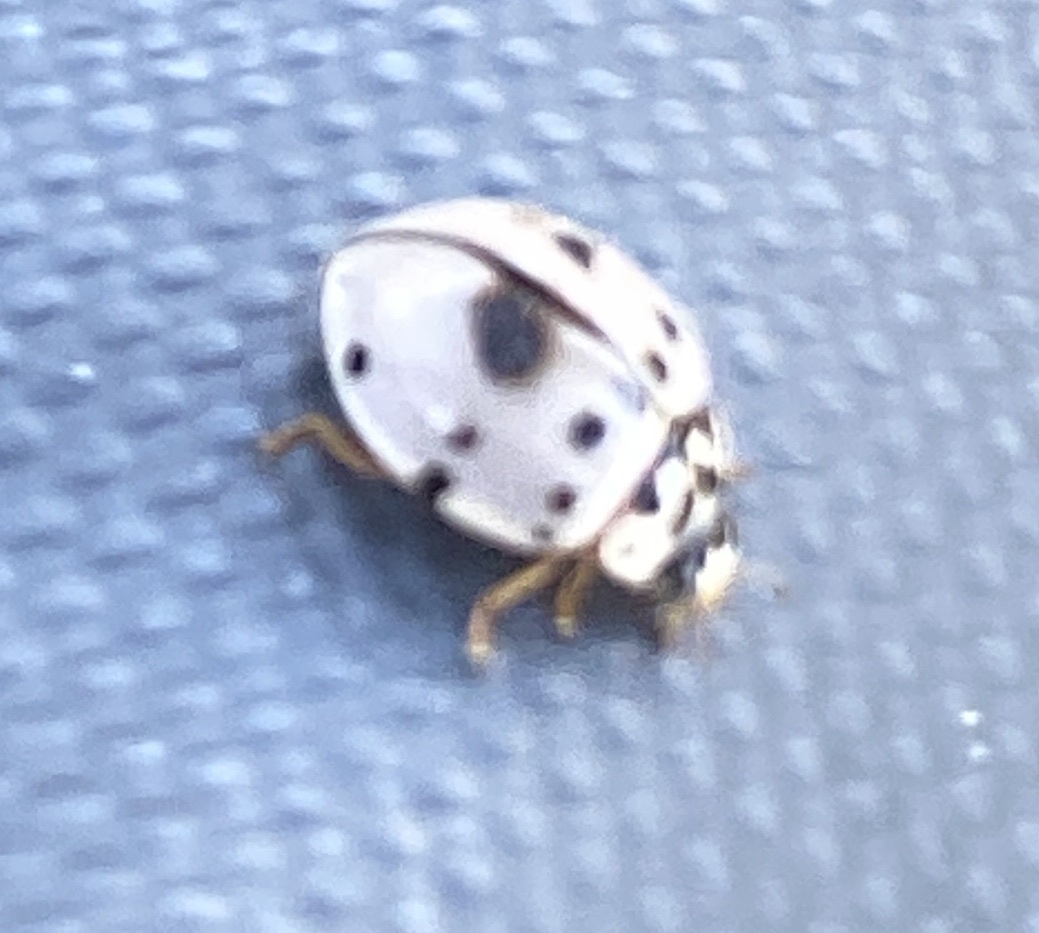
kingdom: Animalia
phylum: Arthropoda
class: Insecta
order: Coleoptera
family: Coccinellidae
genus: Olla
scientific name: Olla v-nigrum
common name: Ashy gray lady beetle
